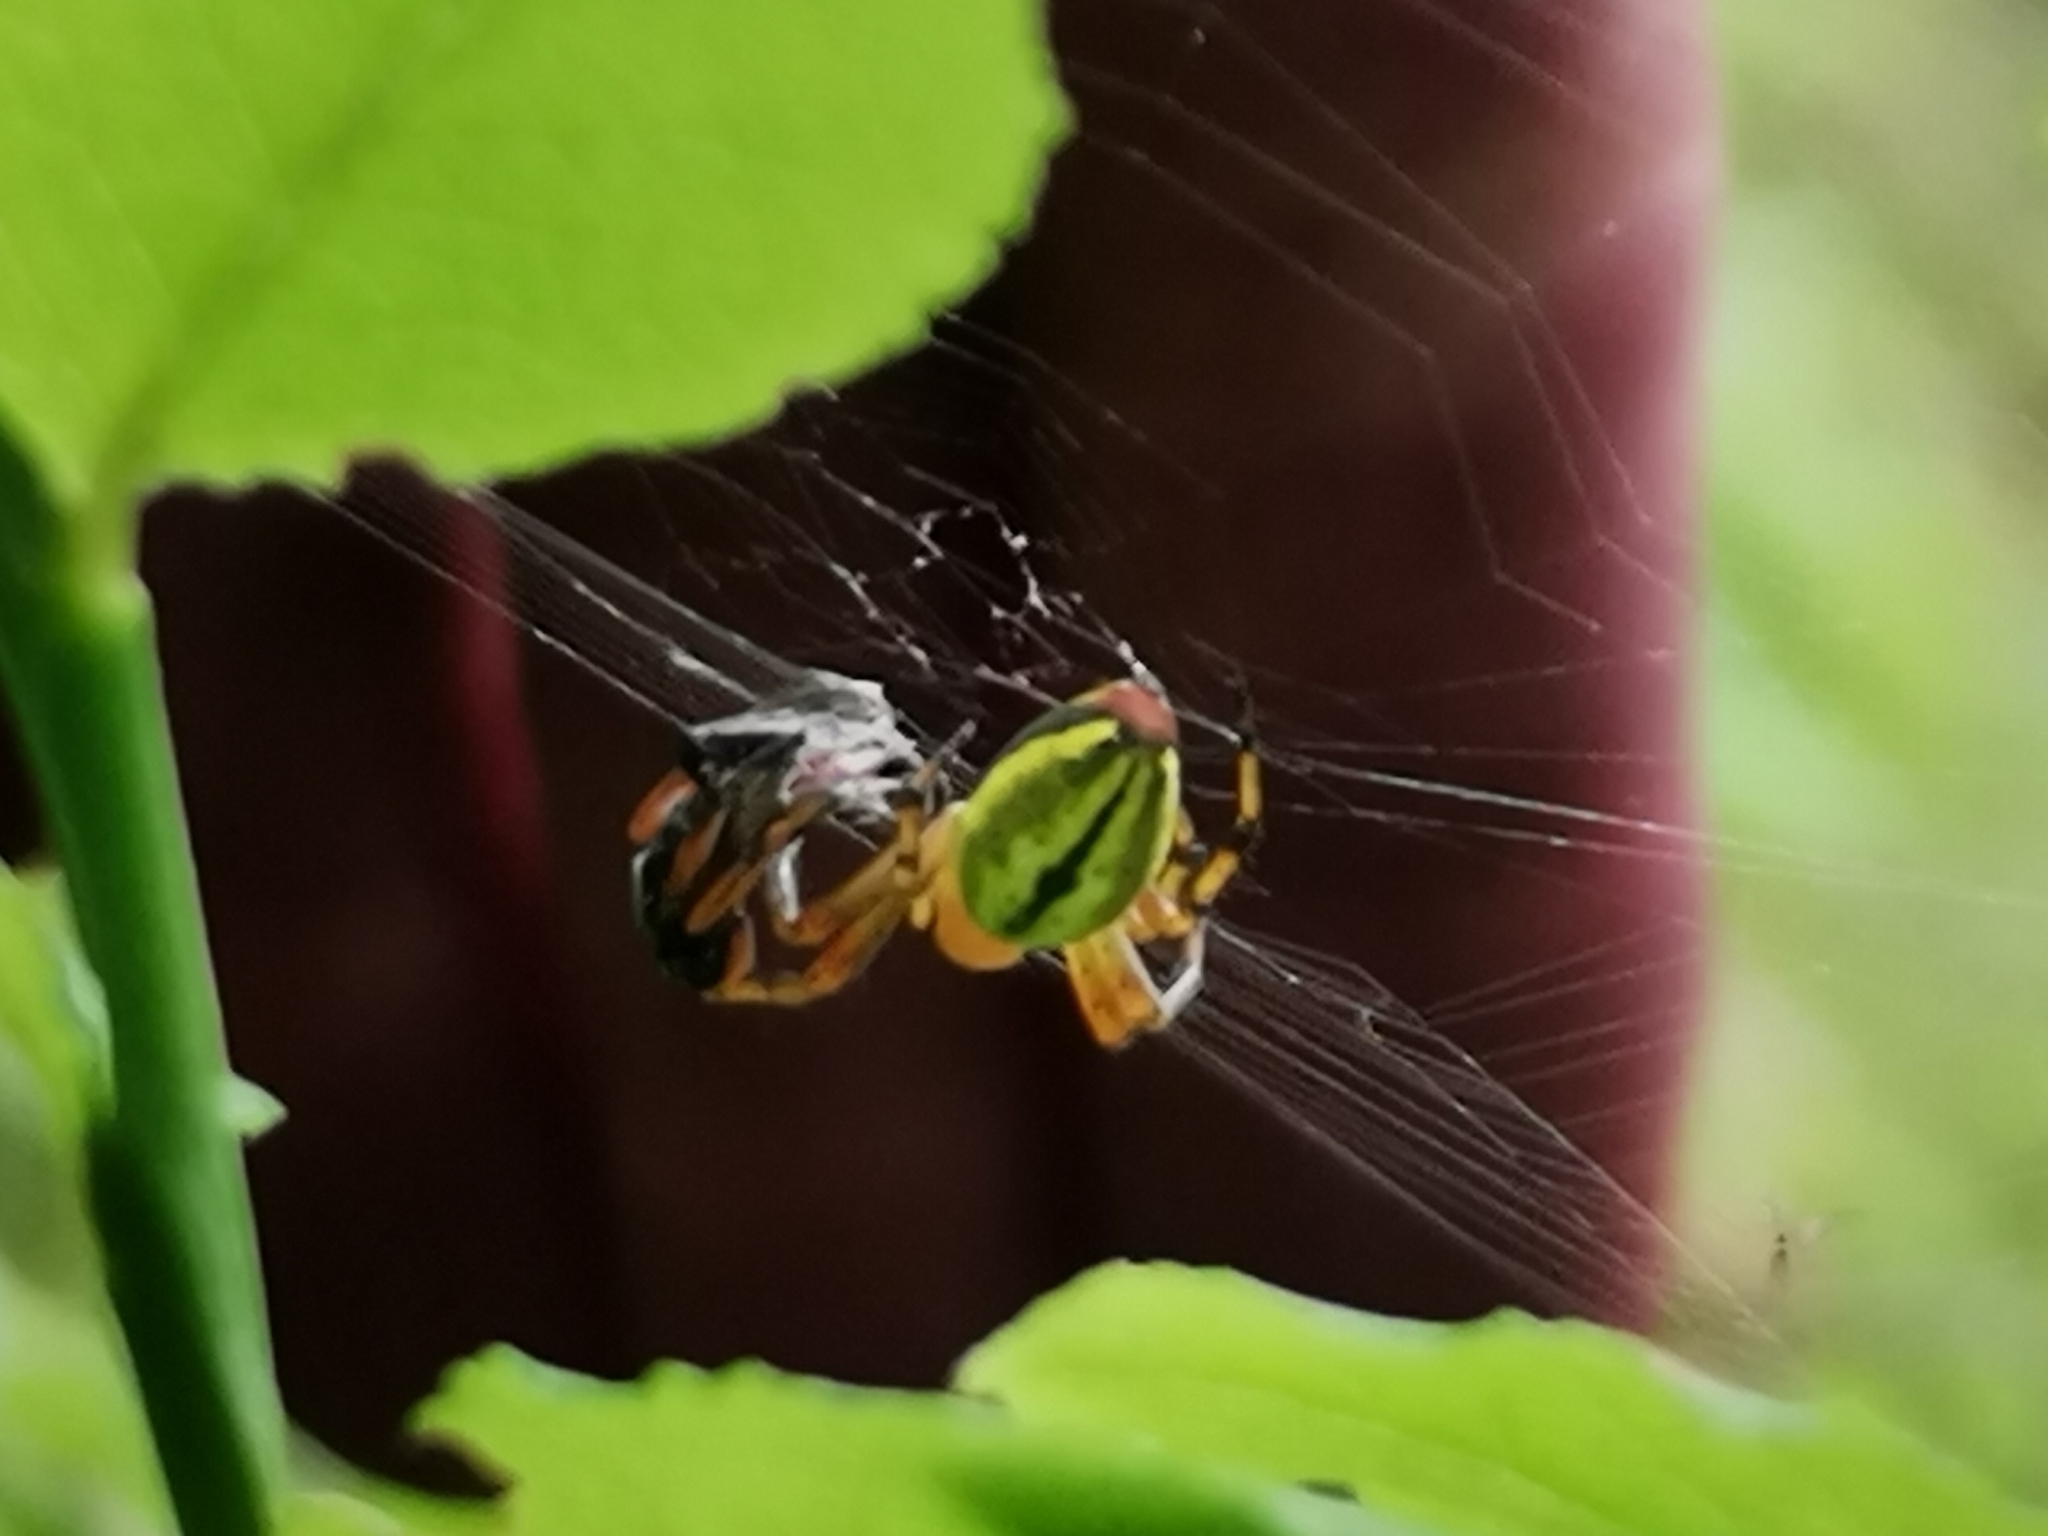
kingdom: Animalia
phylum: Arthropoda
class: Arachnida
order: Araneae
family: Araneidae
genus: Araniella
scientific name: Araniella alpica
